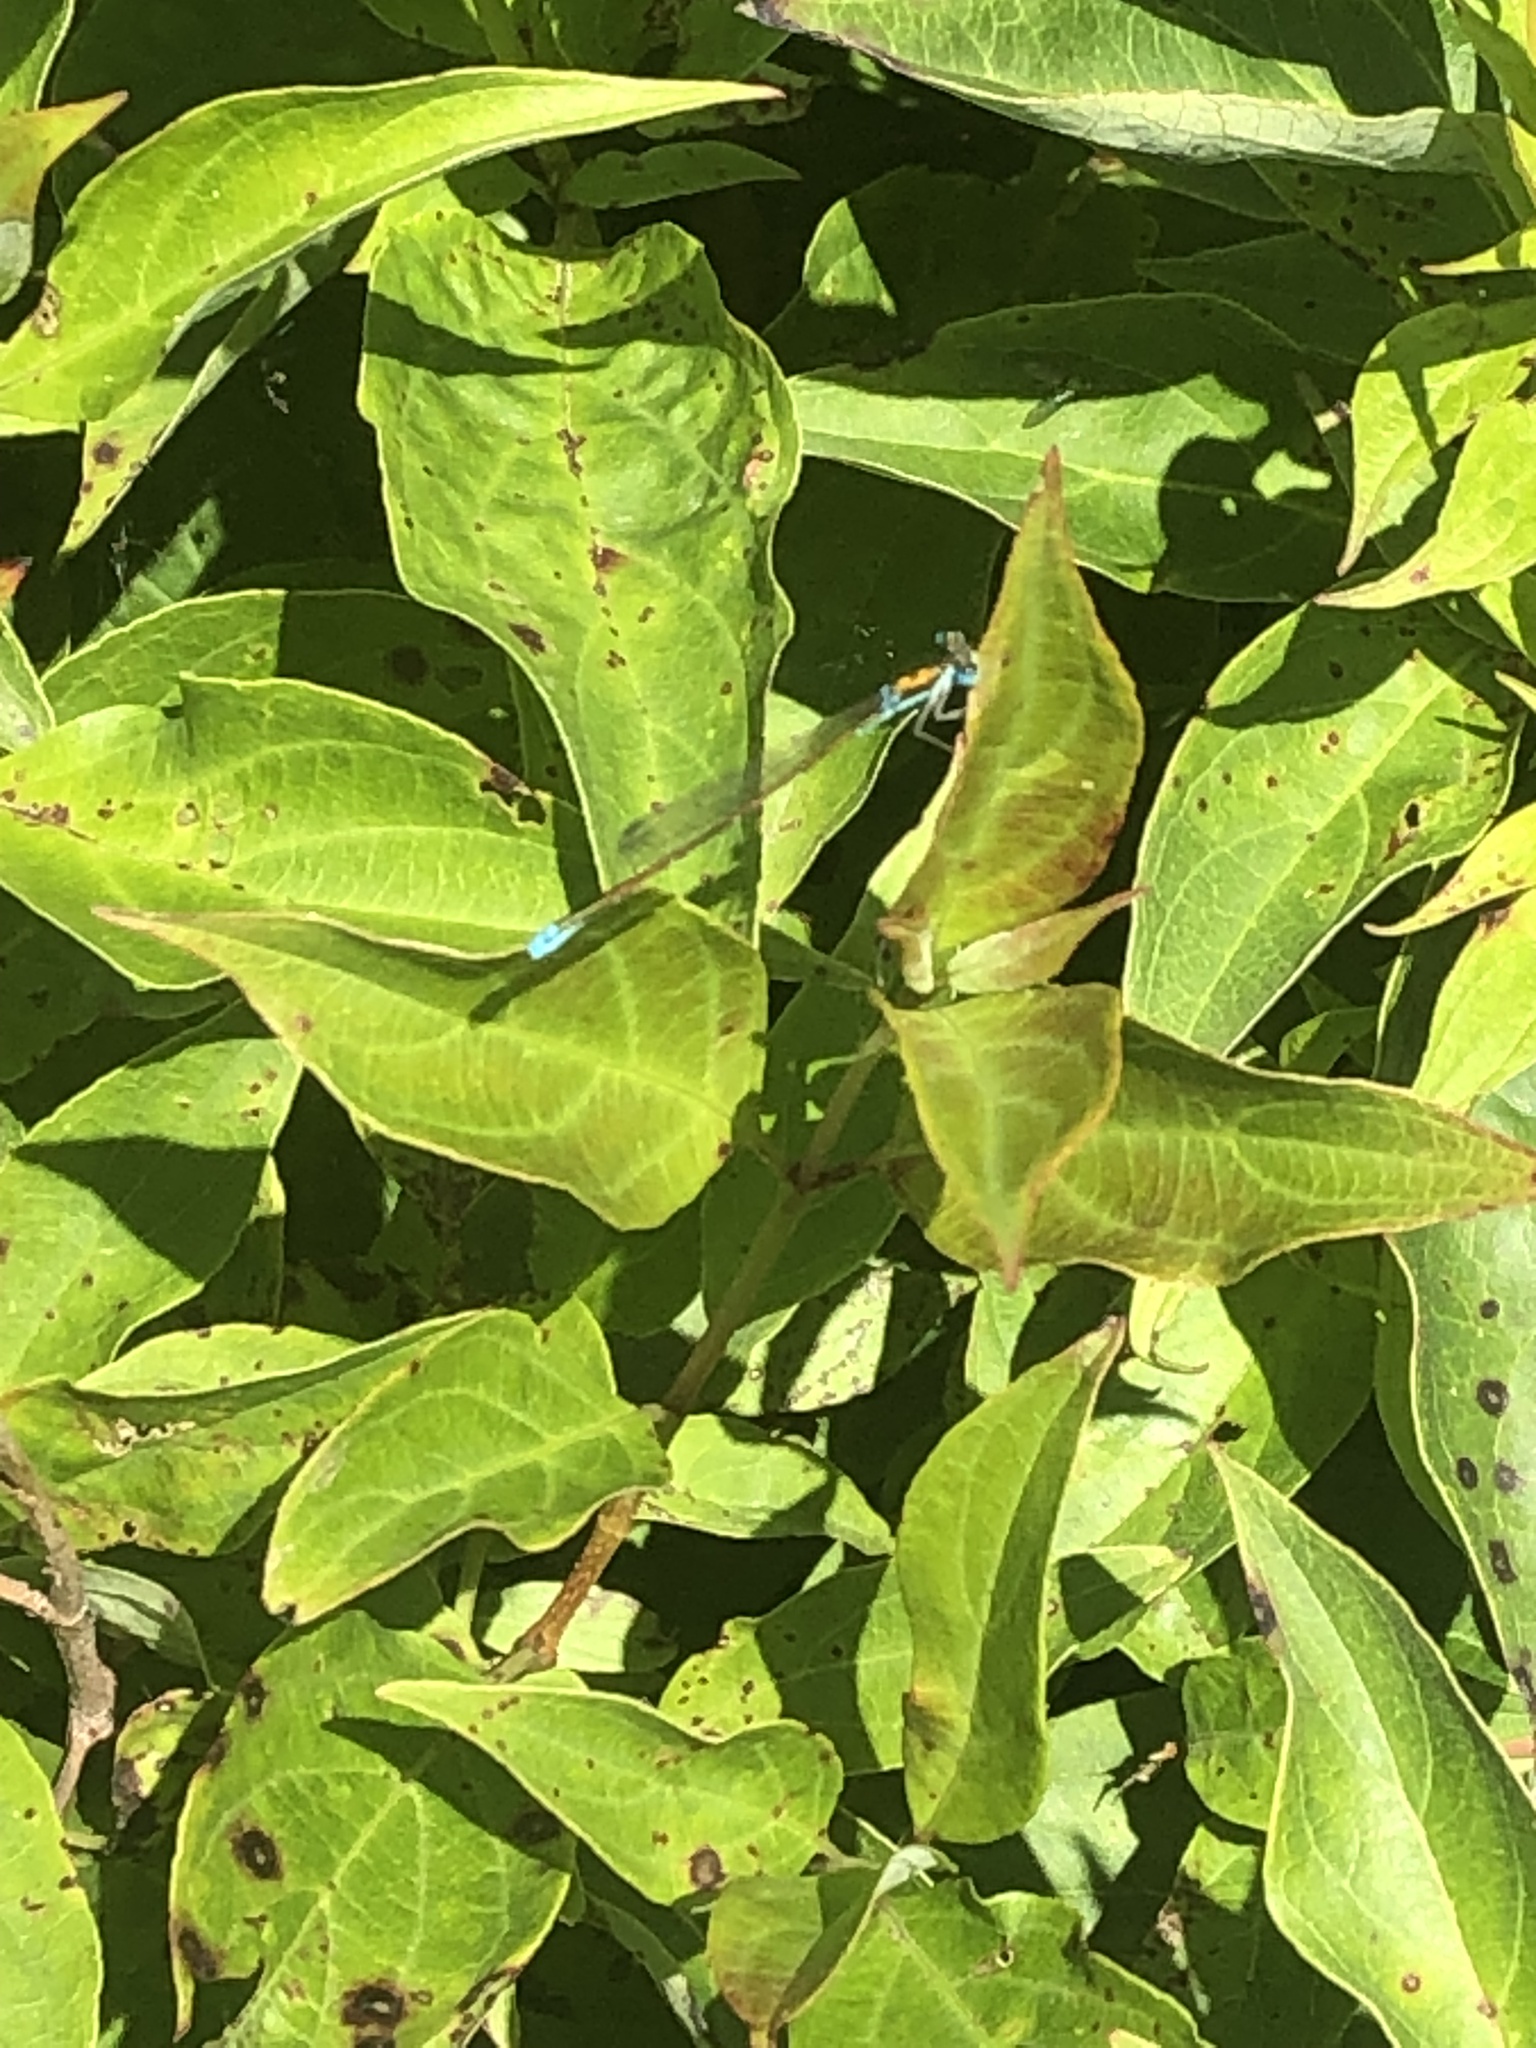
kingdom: Animalia
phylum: Arthropoda
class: Insecta
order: Odonata
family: Coenagrionidae
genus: Nehalennia
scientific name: Nehalennia irene
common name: Sedge sprite
